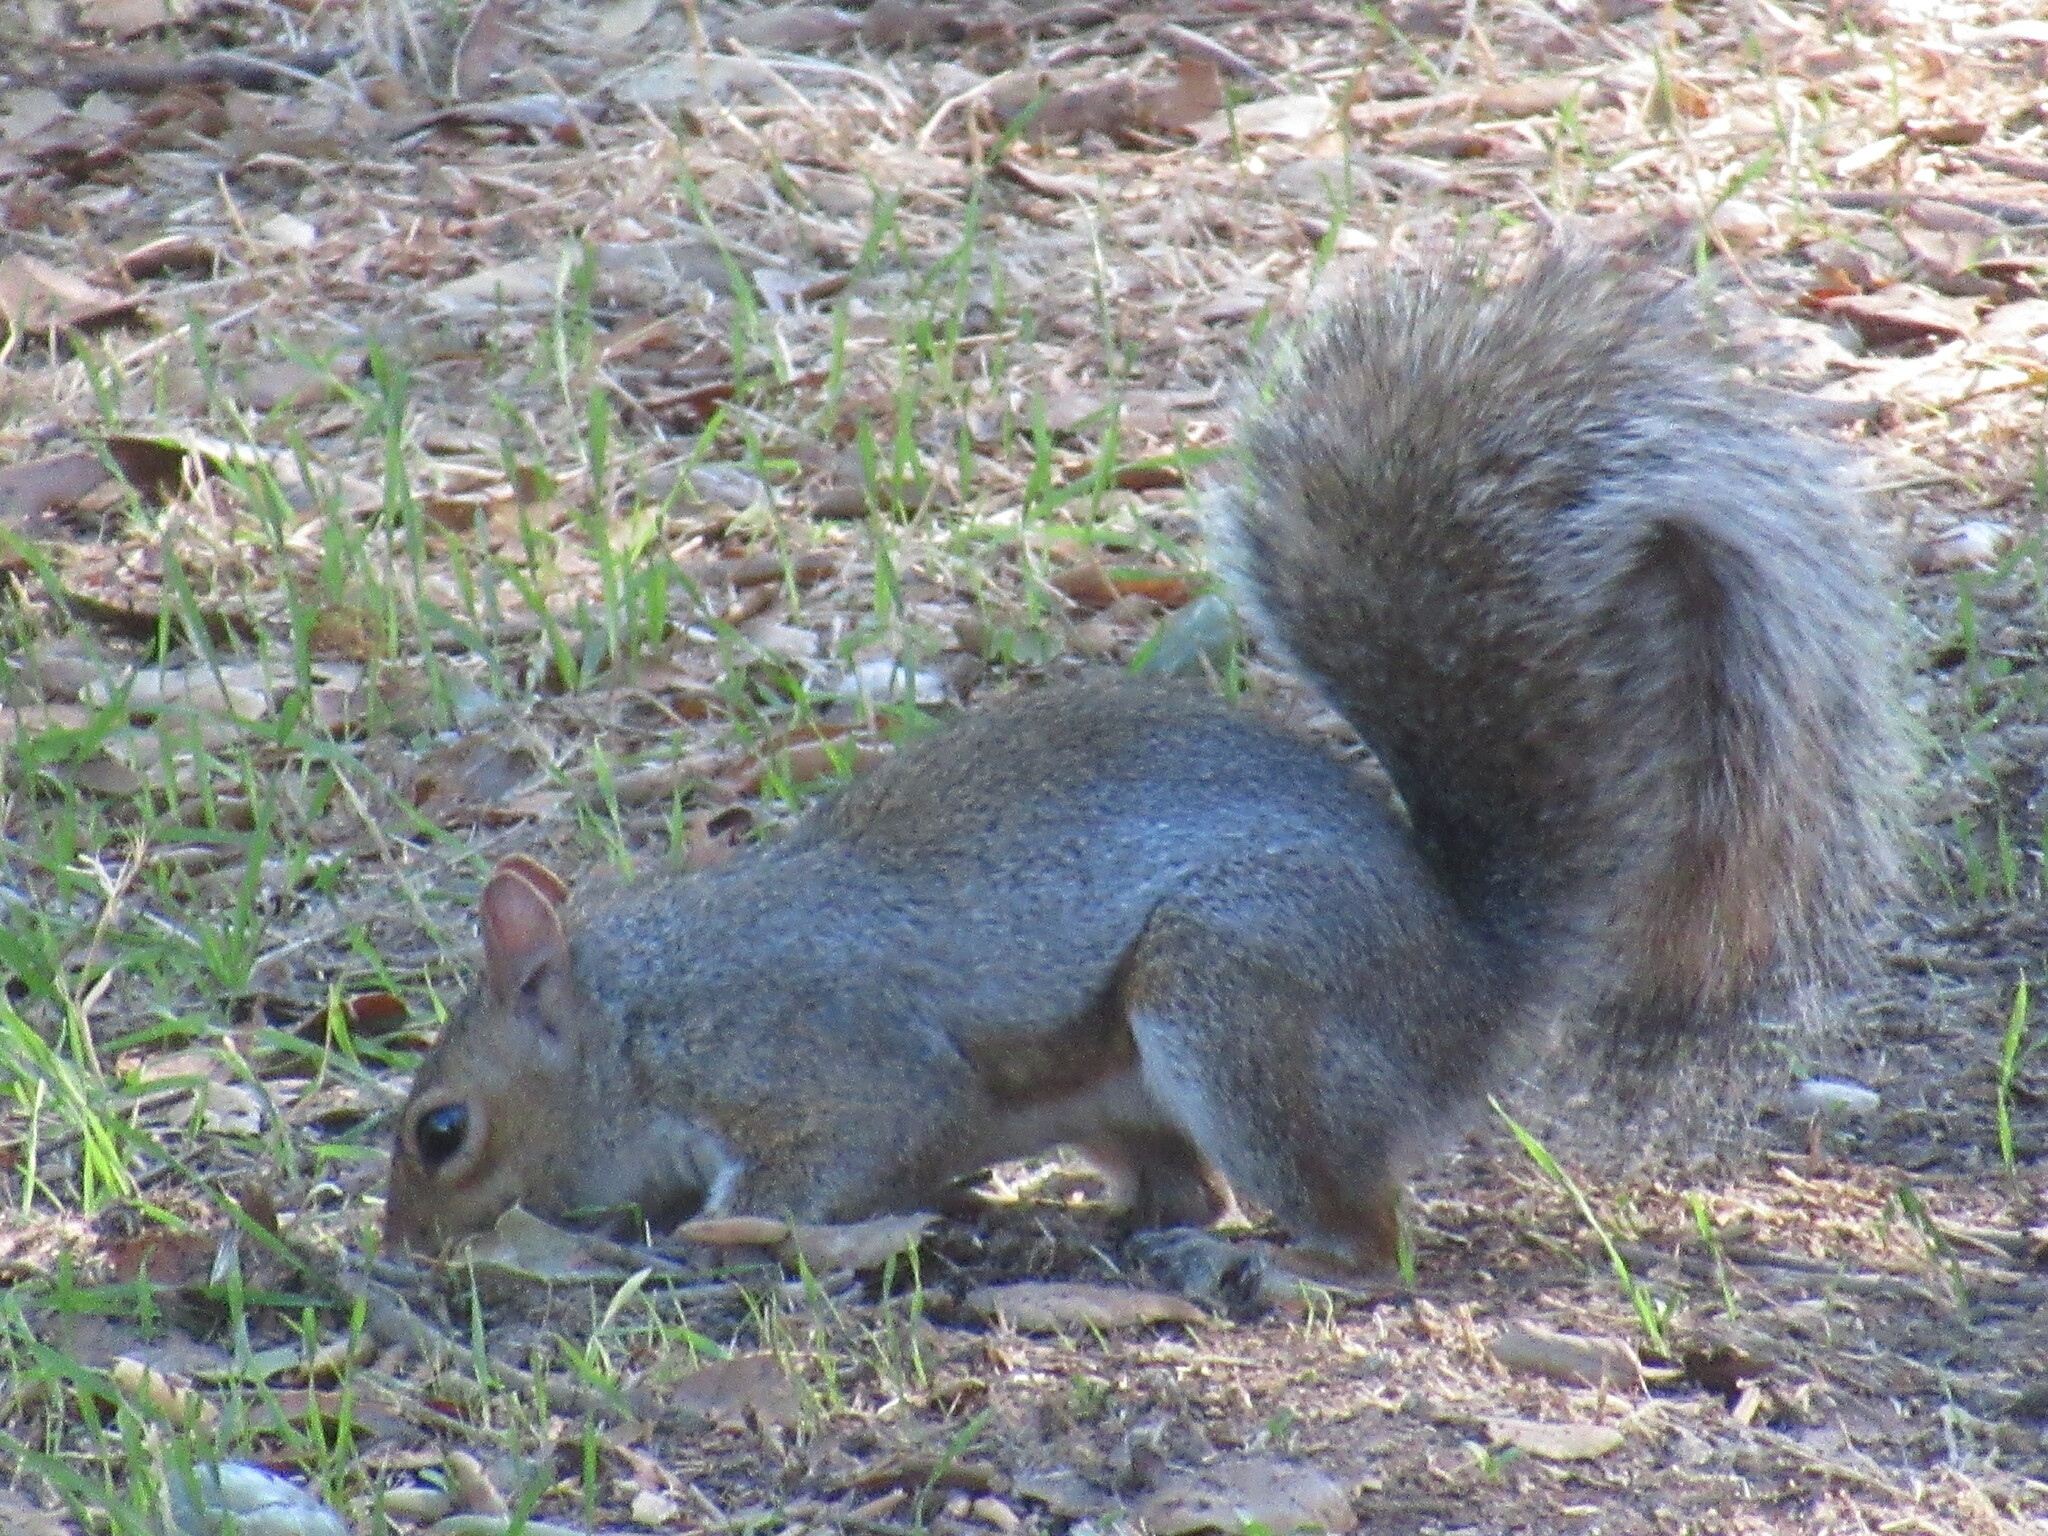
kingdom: Animalia
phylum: Chordata
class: Mammalia
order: Rodentia
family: Sciuridae
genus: Sciurus
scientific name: Sciurus carolinensis
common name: Eastern gray squirrel
